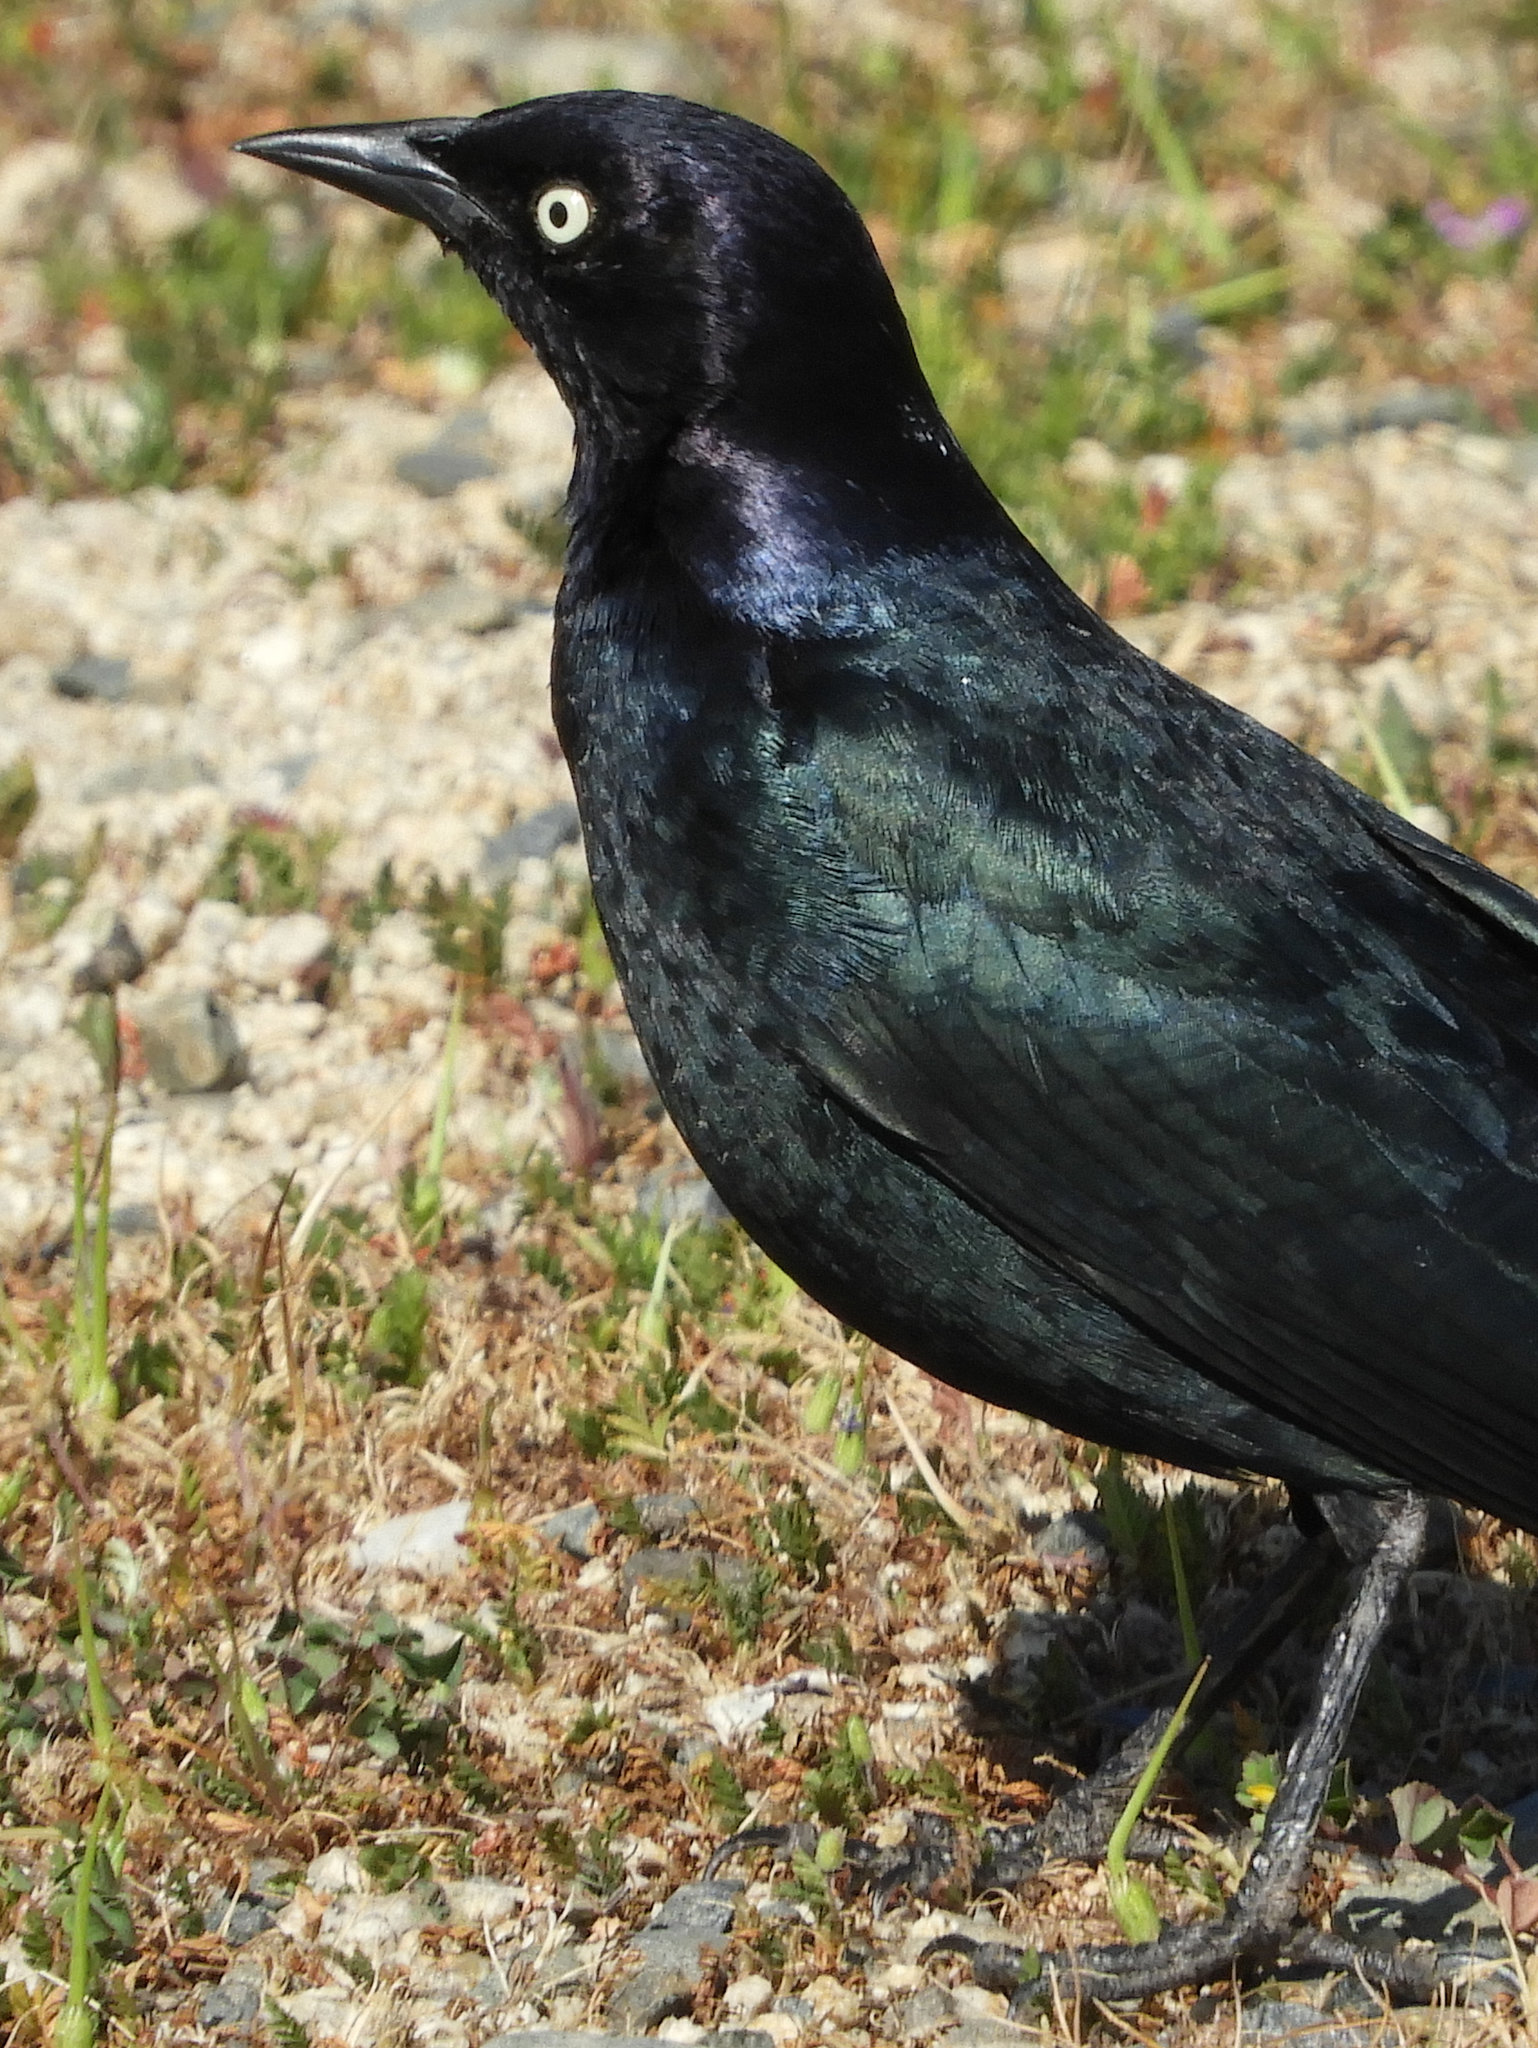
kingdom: Animalia
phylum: Chordata
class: Aves
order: Passeriformes
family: Icteridae
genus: Euphagus
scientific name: Euphagus cyanocephalus
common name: Brewer's blackbird
